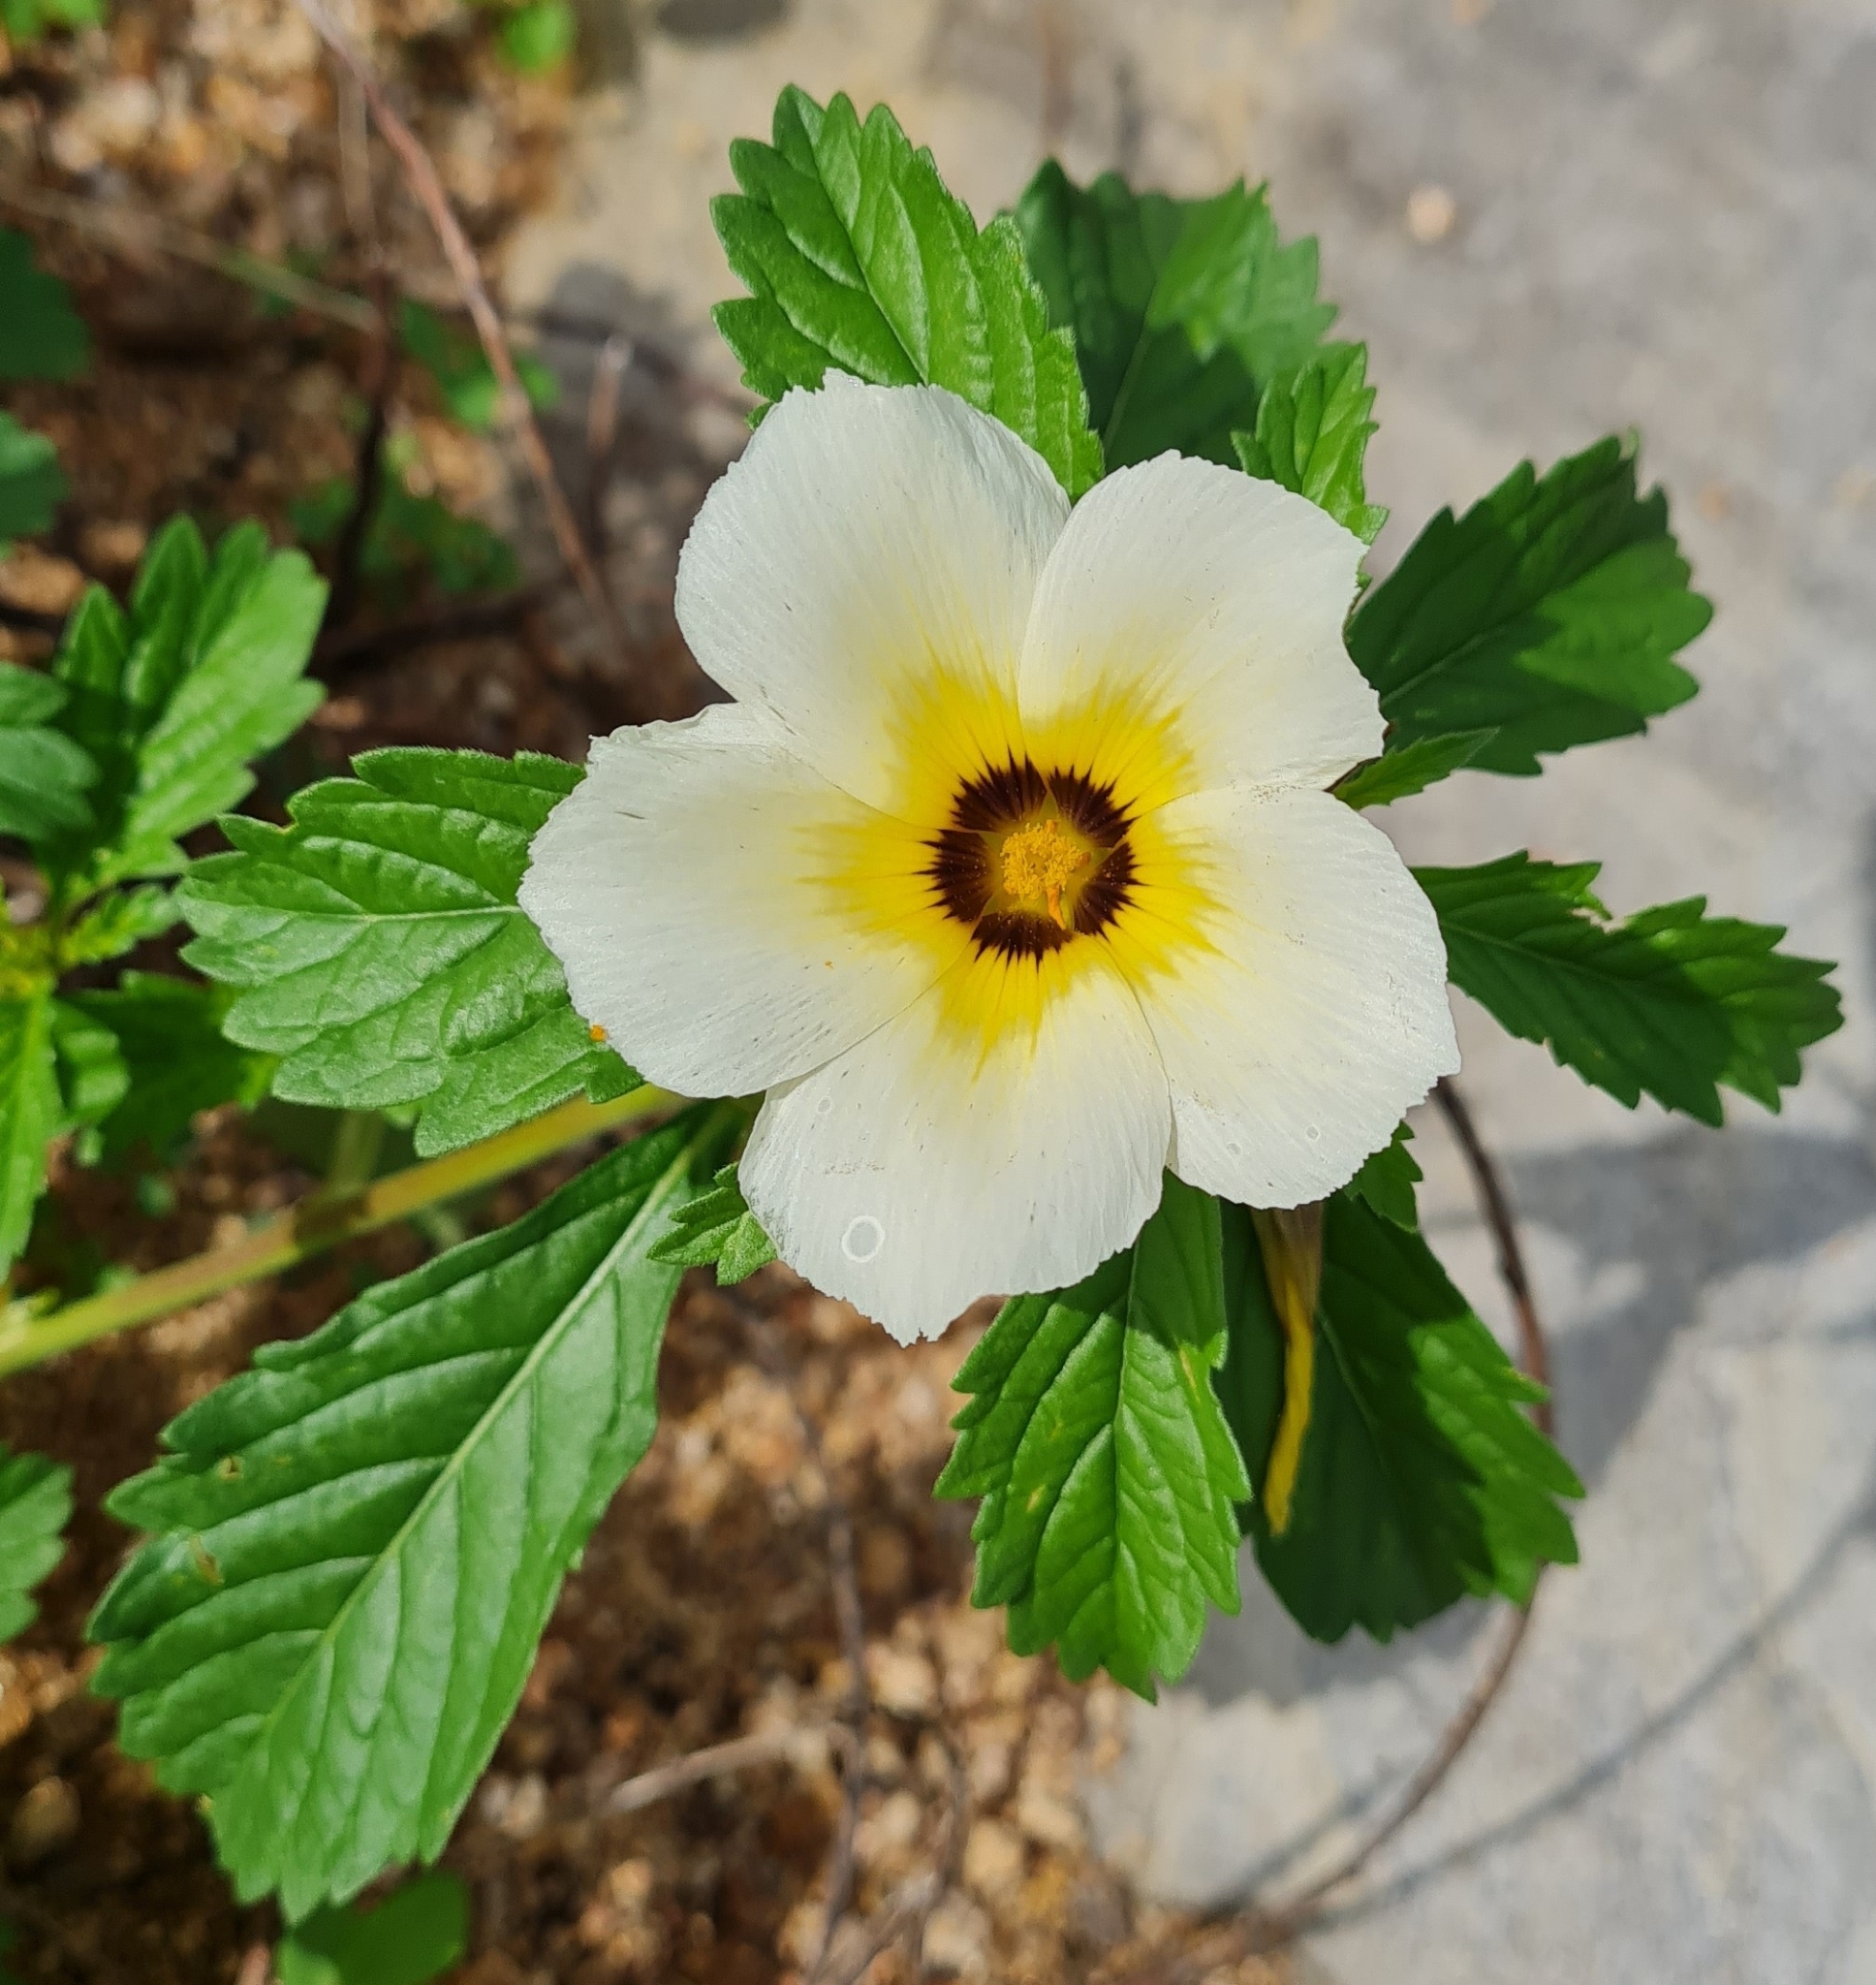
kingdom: Plantae
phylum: Tracheophyta
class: Magnoliopsida
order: Malpighiales
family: Turneraceae
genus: Turnera
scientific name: Turnera subulata
